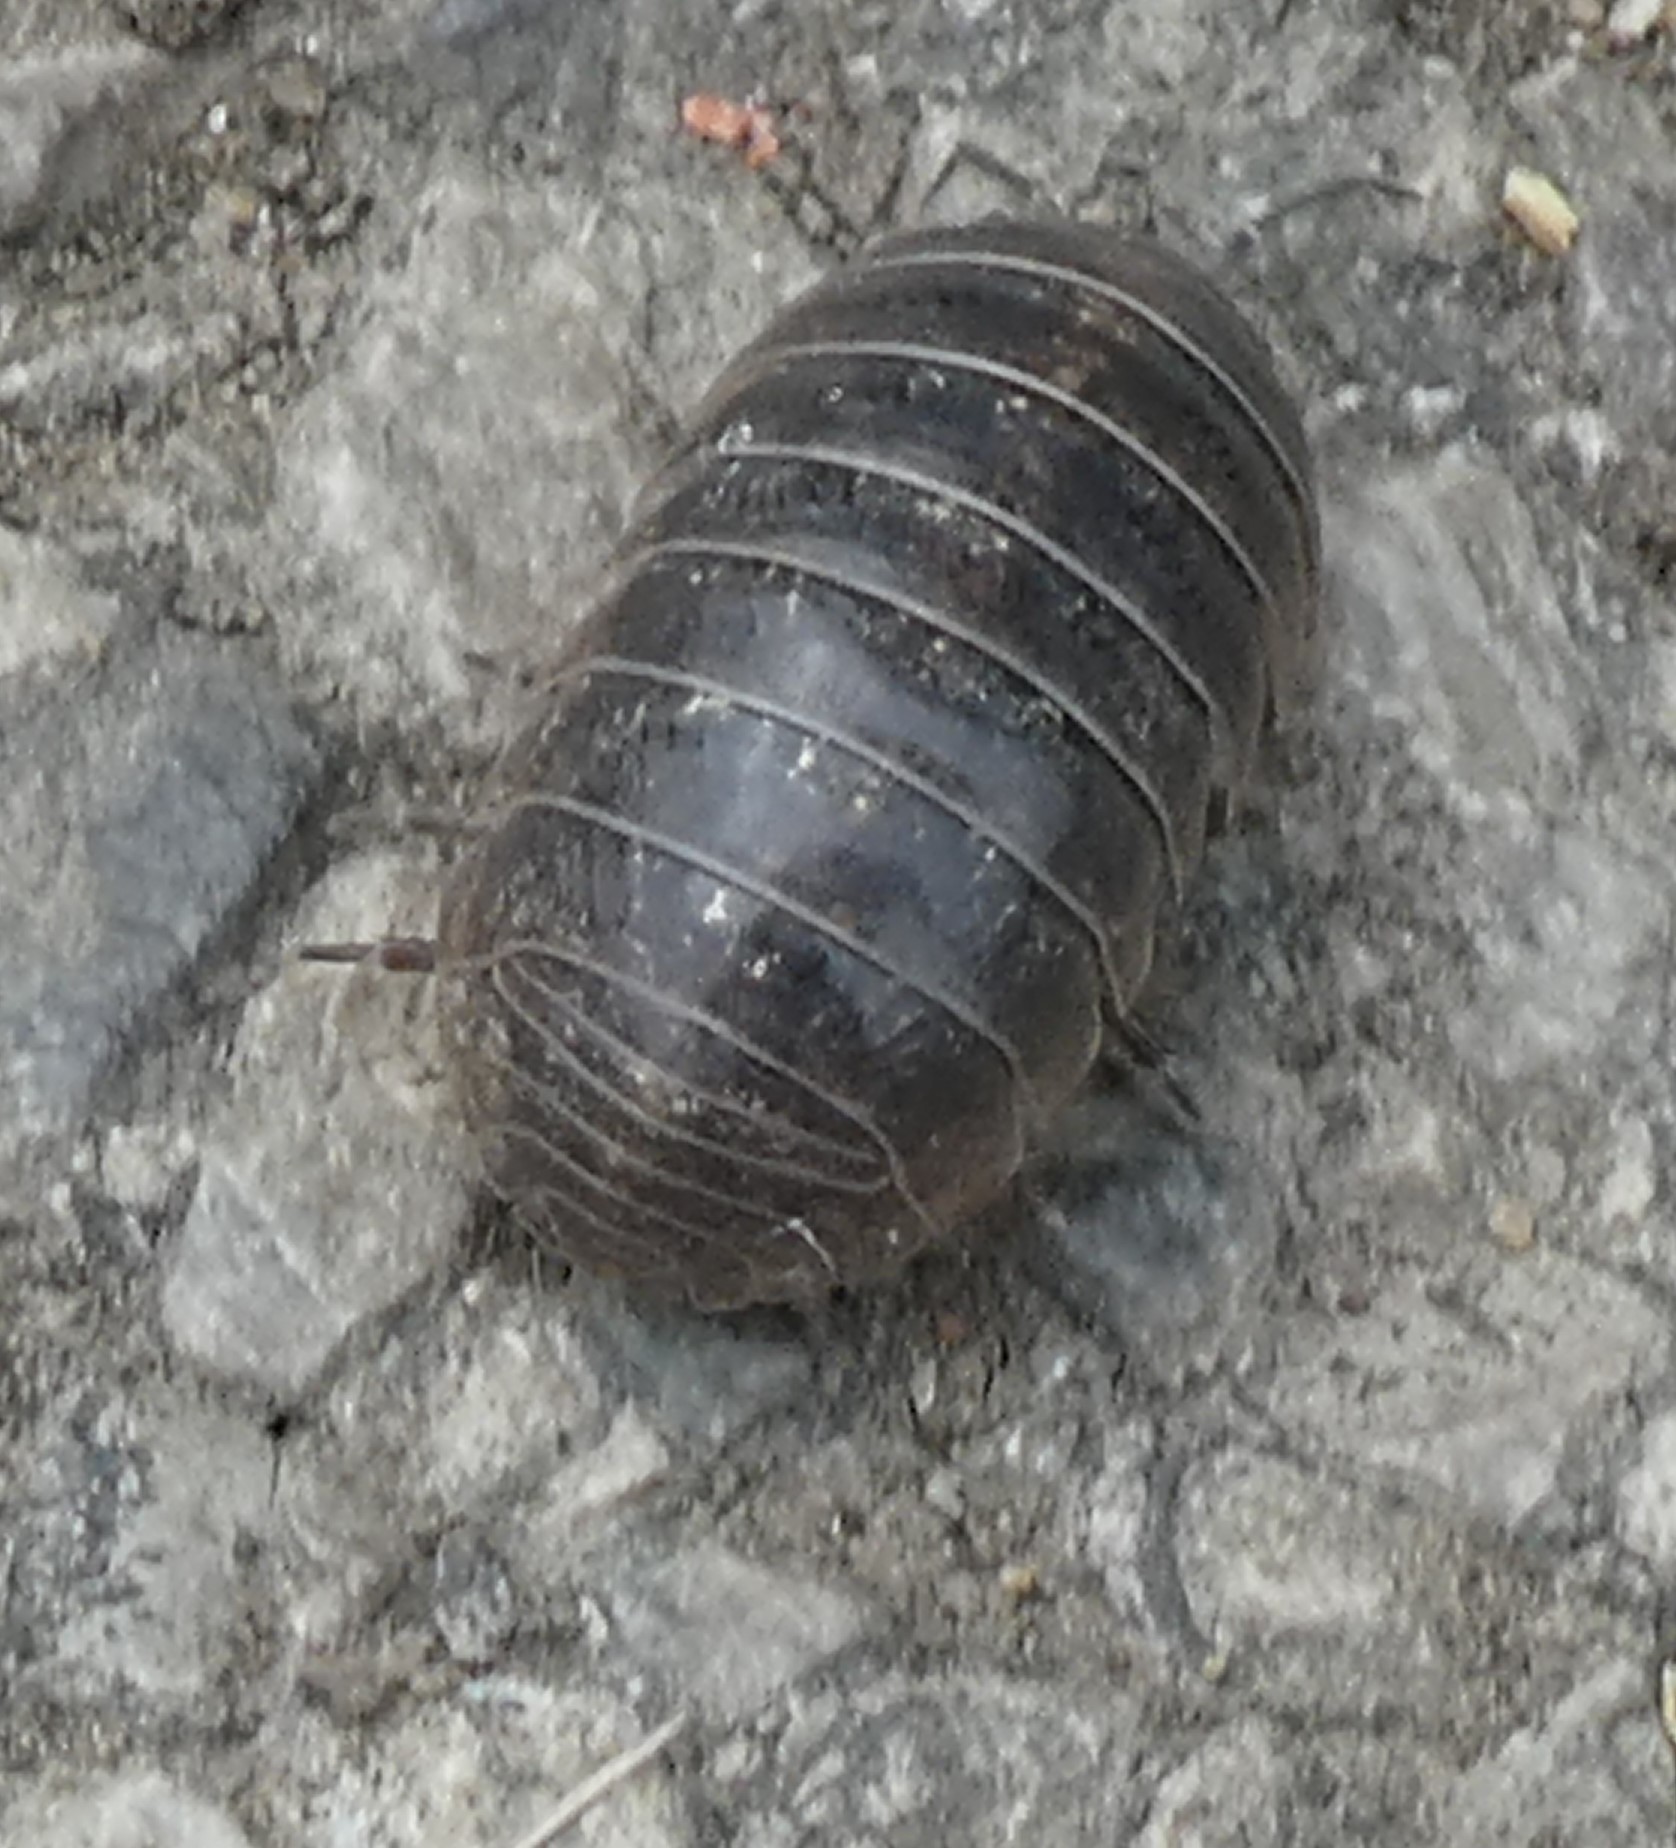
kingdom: Animalia
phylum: Arthropoda
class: Malacostraca
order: Isopoda
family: Armadillidiidae
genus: Armadillidium
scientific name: Armadillidium vulgare
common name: Common pill woodlouse
